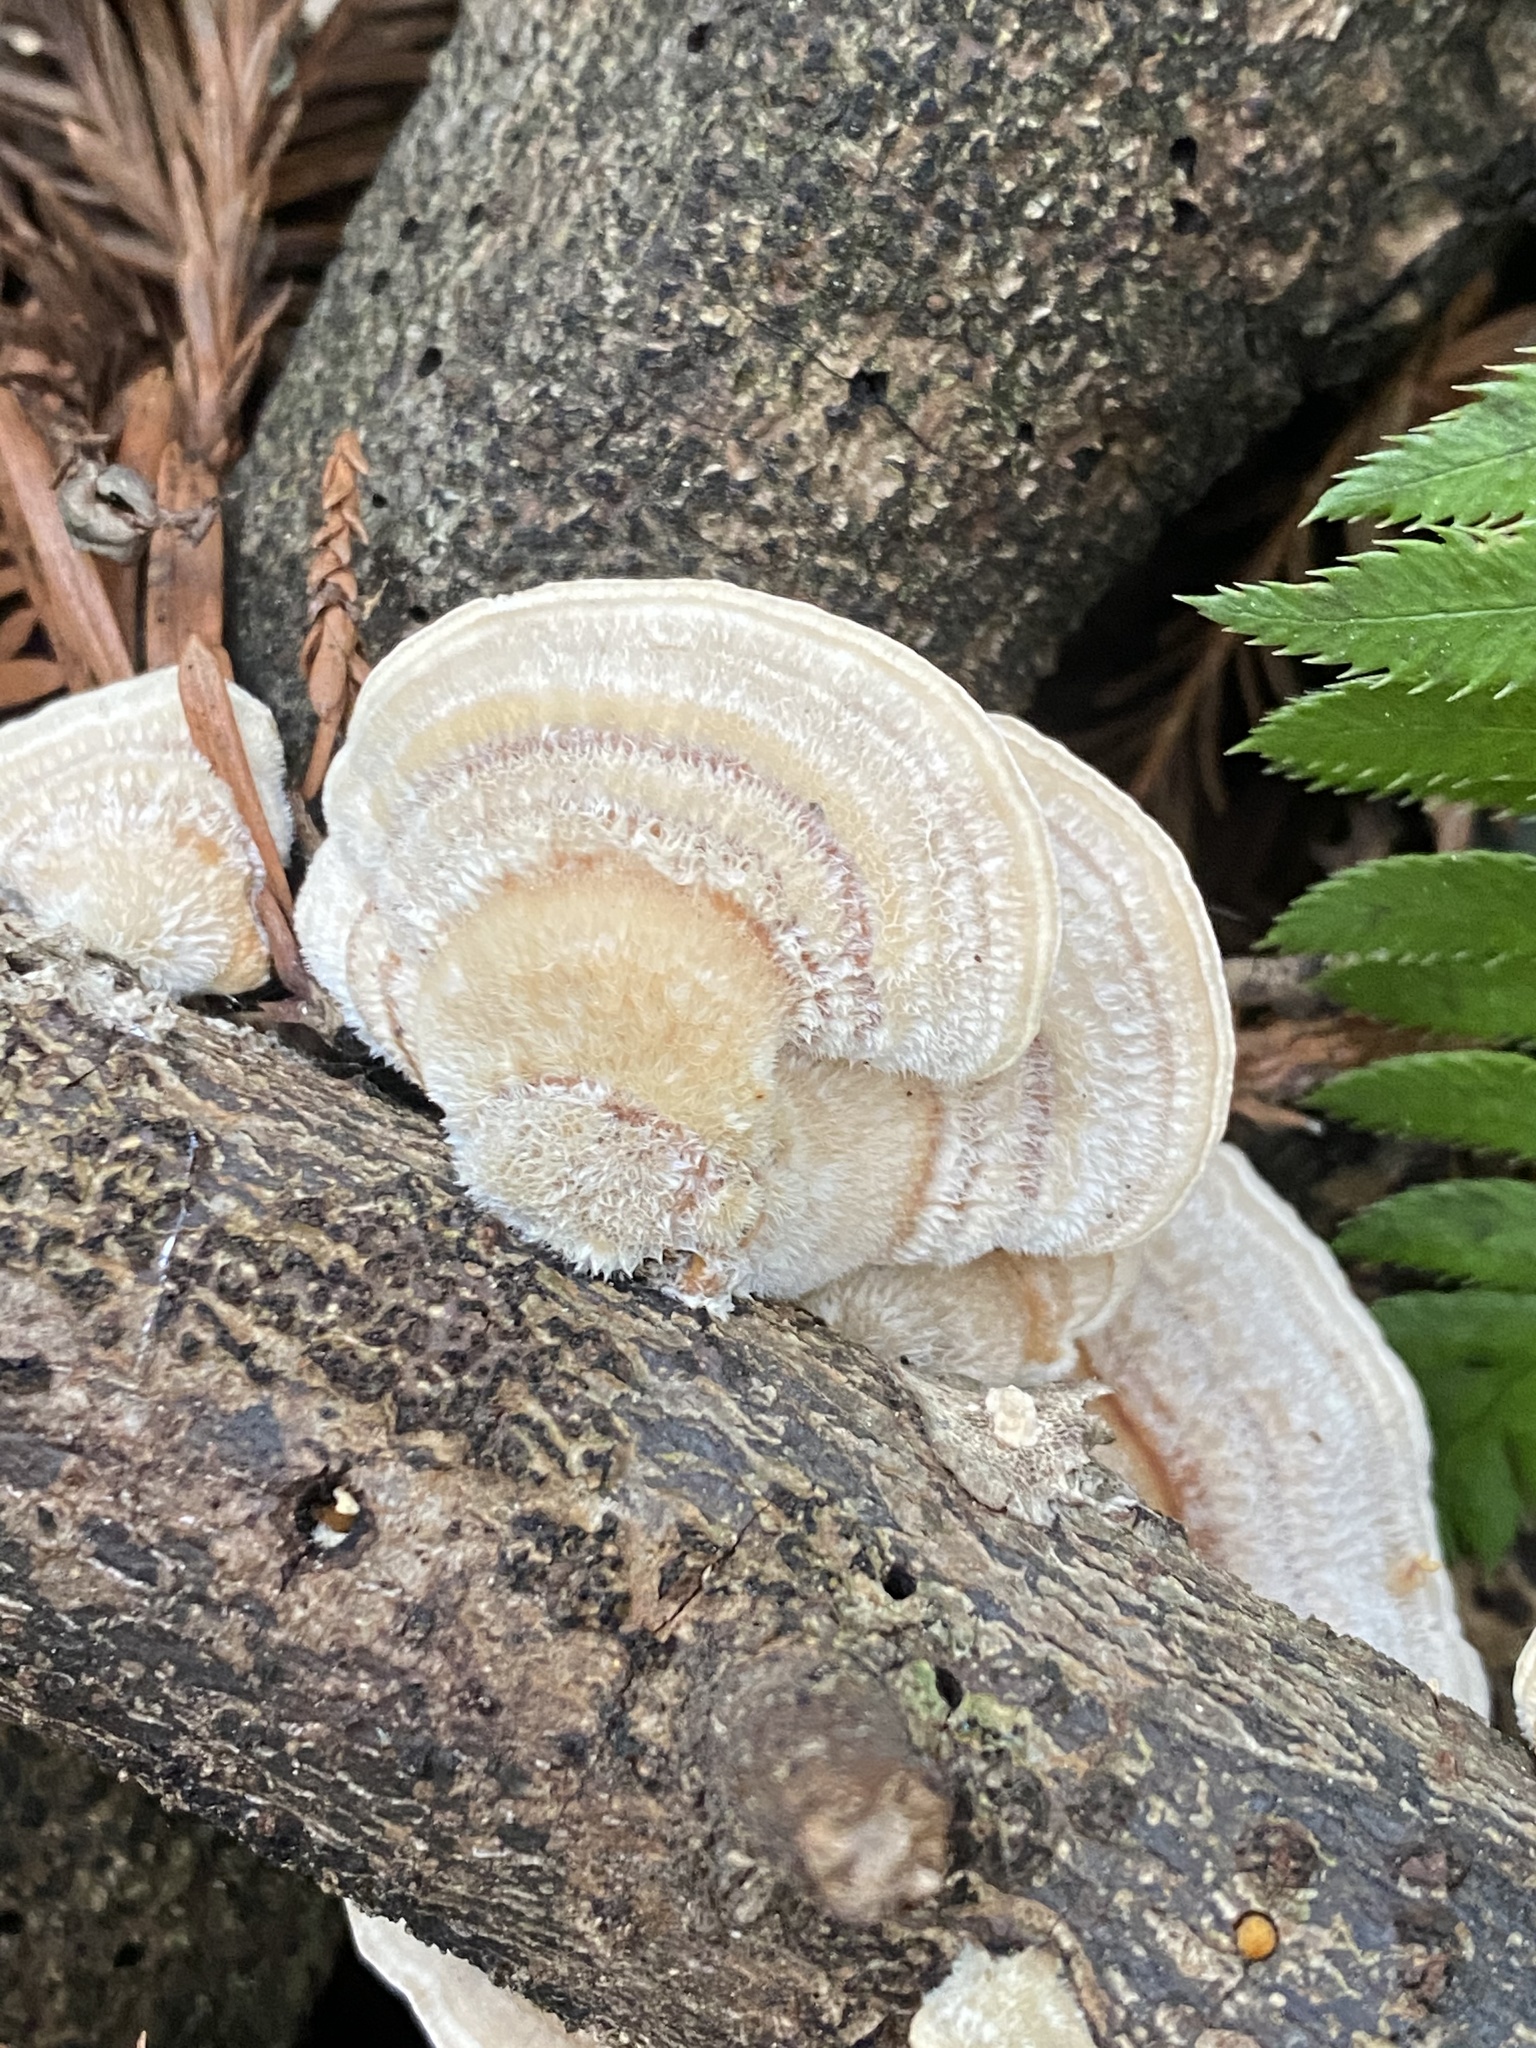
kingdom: Fungi
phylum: Basidiomycota
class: Agaricomycetes
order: Polyporales
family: Polyporaceae
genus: Trametes
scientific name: Trametes hirsuta
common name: Hairy bracket
